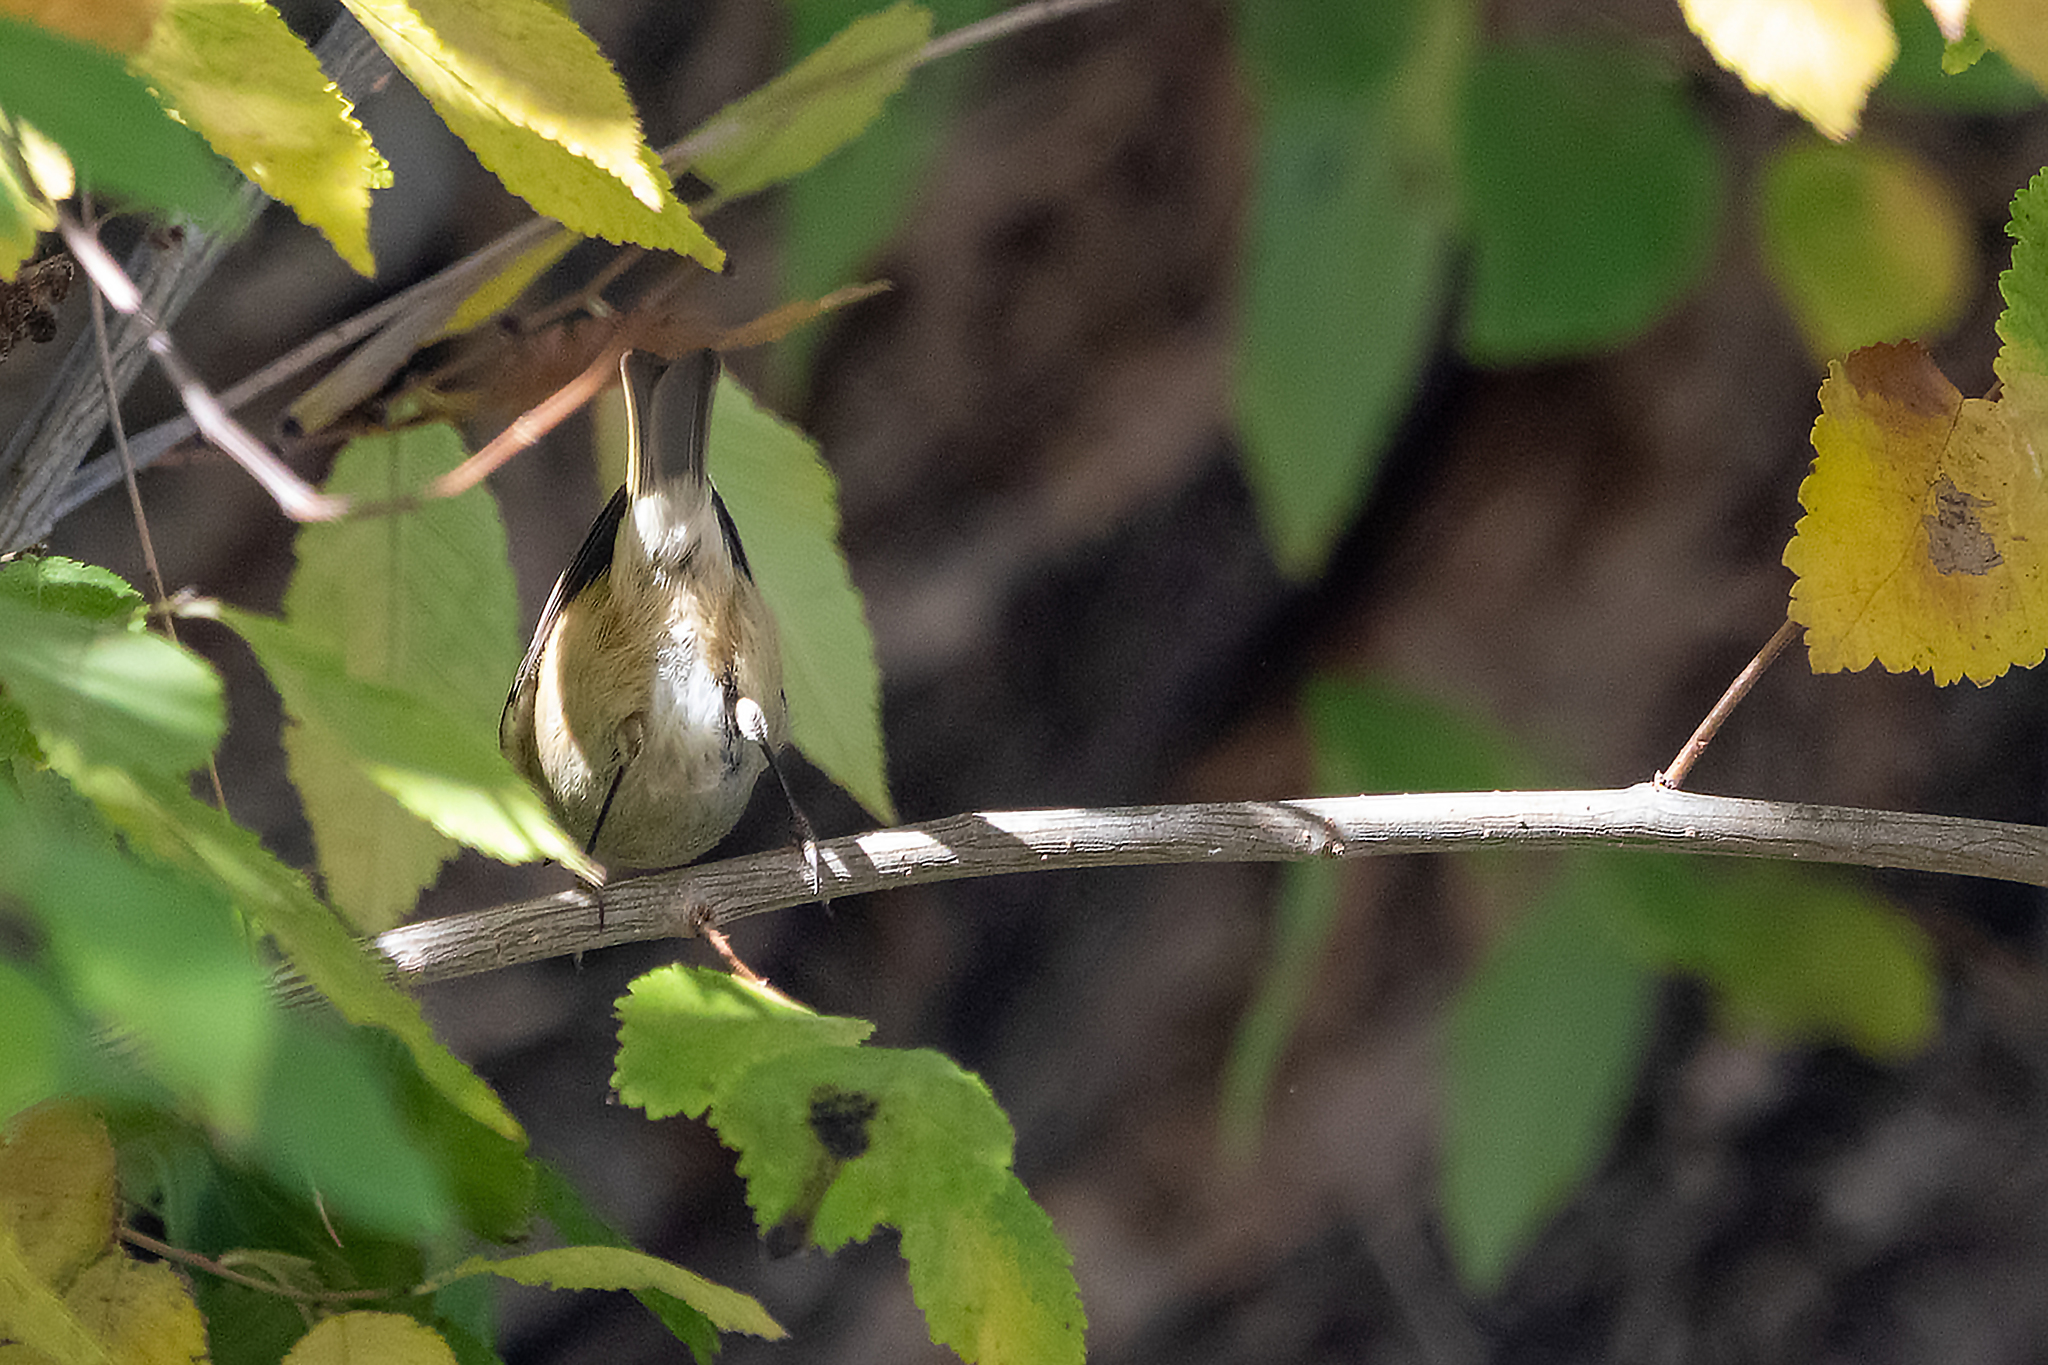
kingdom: Animalia
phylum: Chordata
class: Aves
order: Passeriformes
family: Regulidae
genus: Regulus
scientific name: Regulus calendula
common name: Ruby-crowned kinglet
